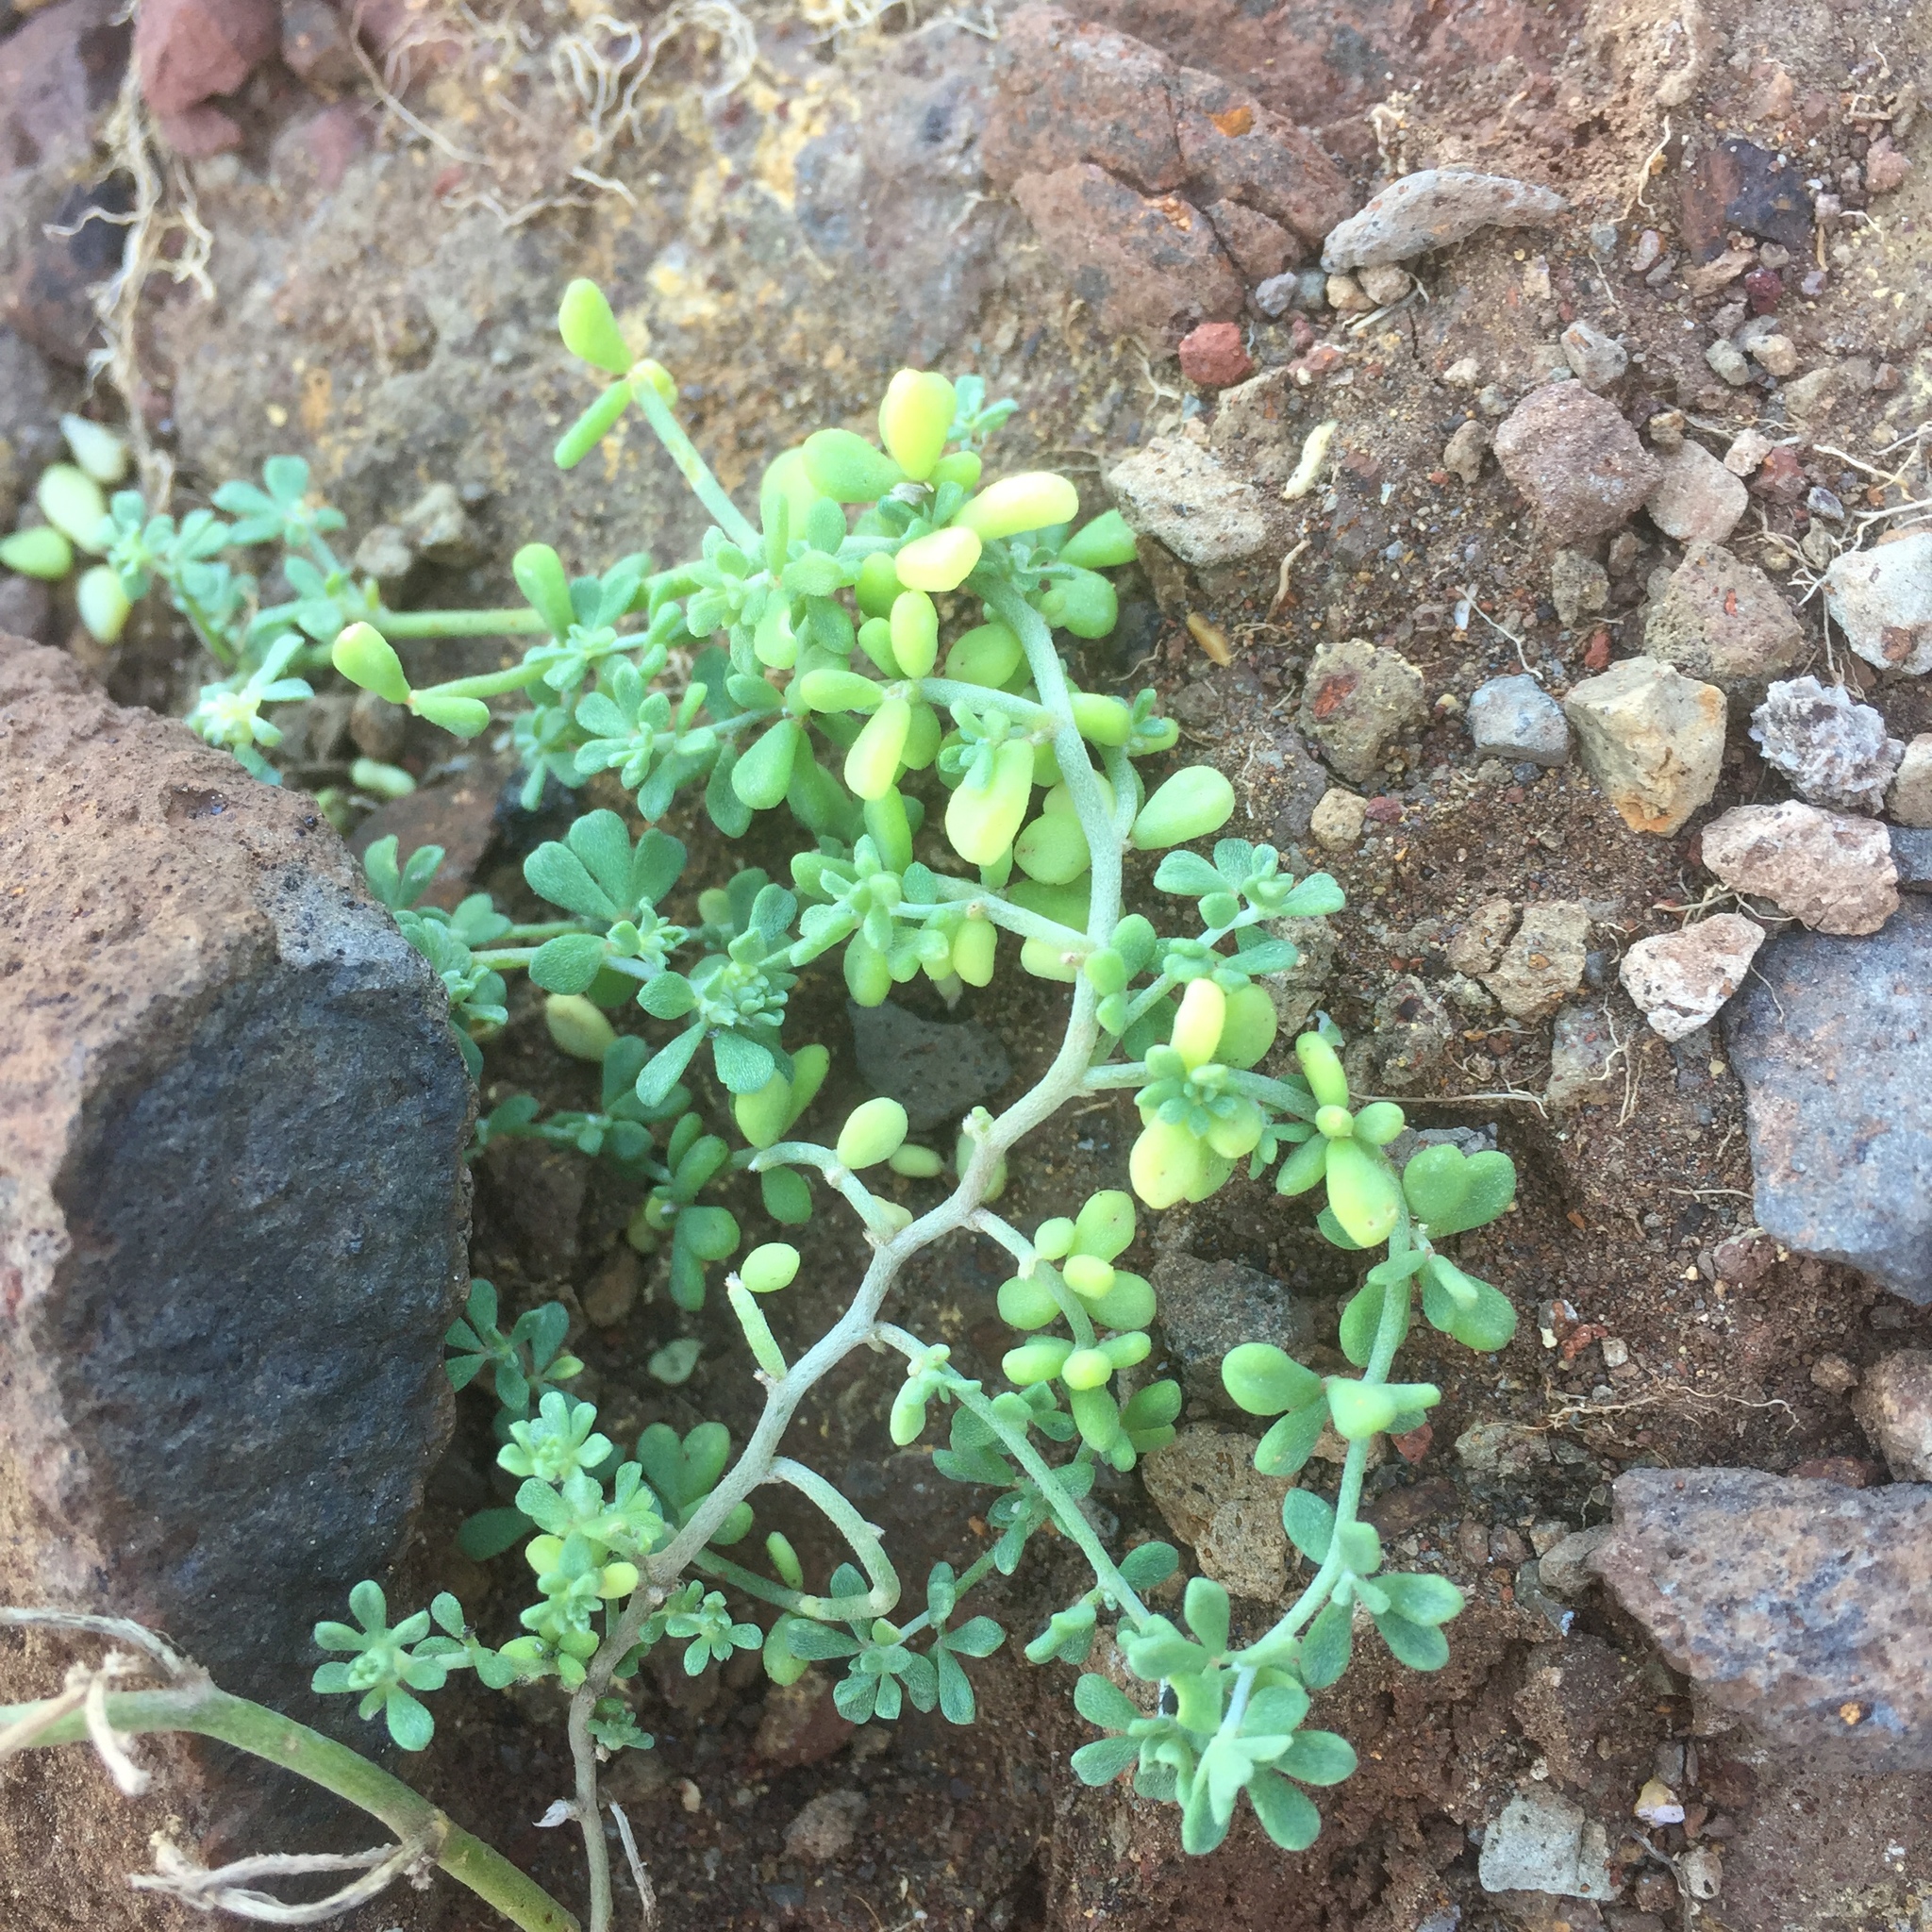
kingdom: Plantae
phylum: Tracheophyta
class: Magnoliopsida
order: Fabales
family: Fabaceae
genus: Lotus
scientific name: Lotus glaucus
